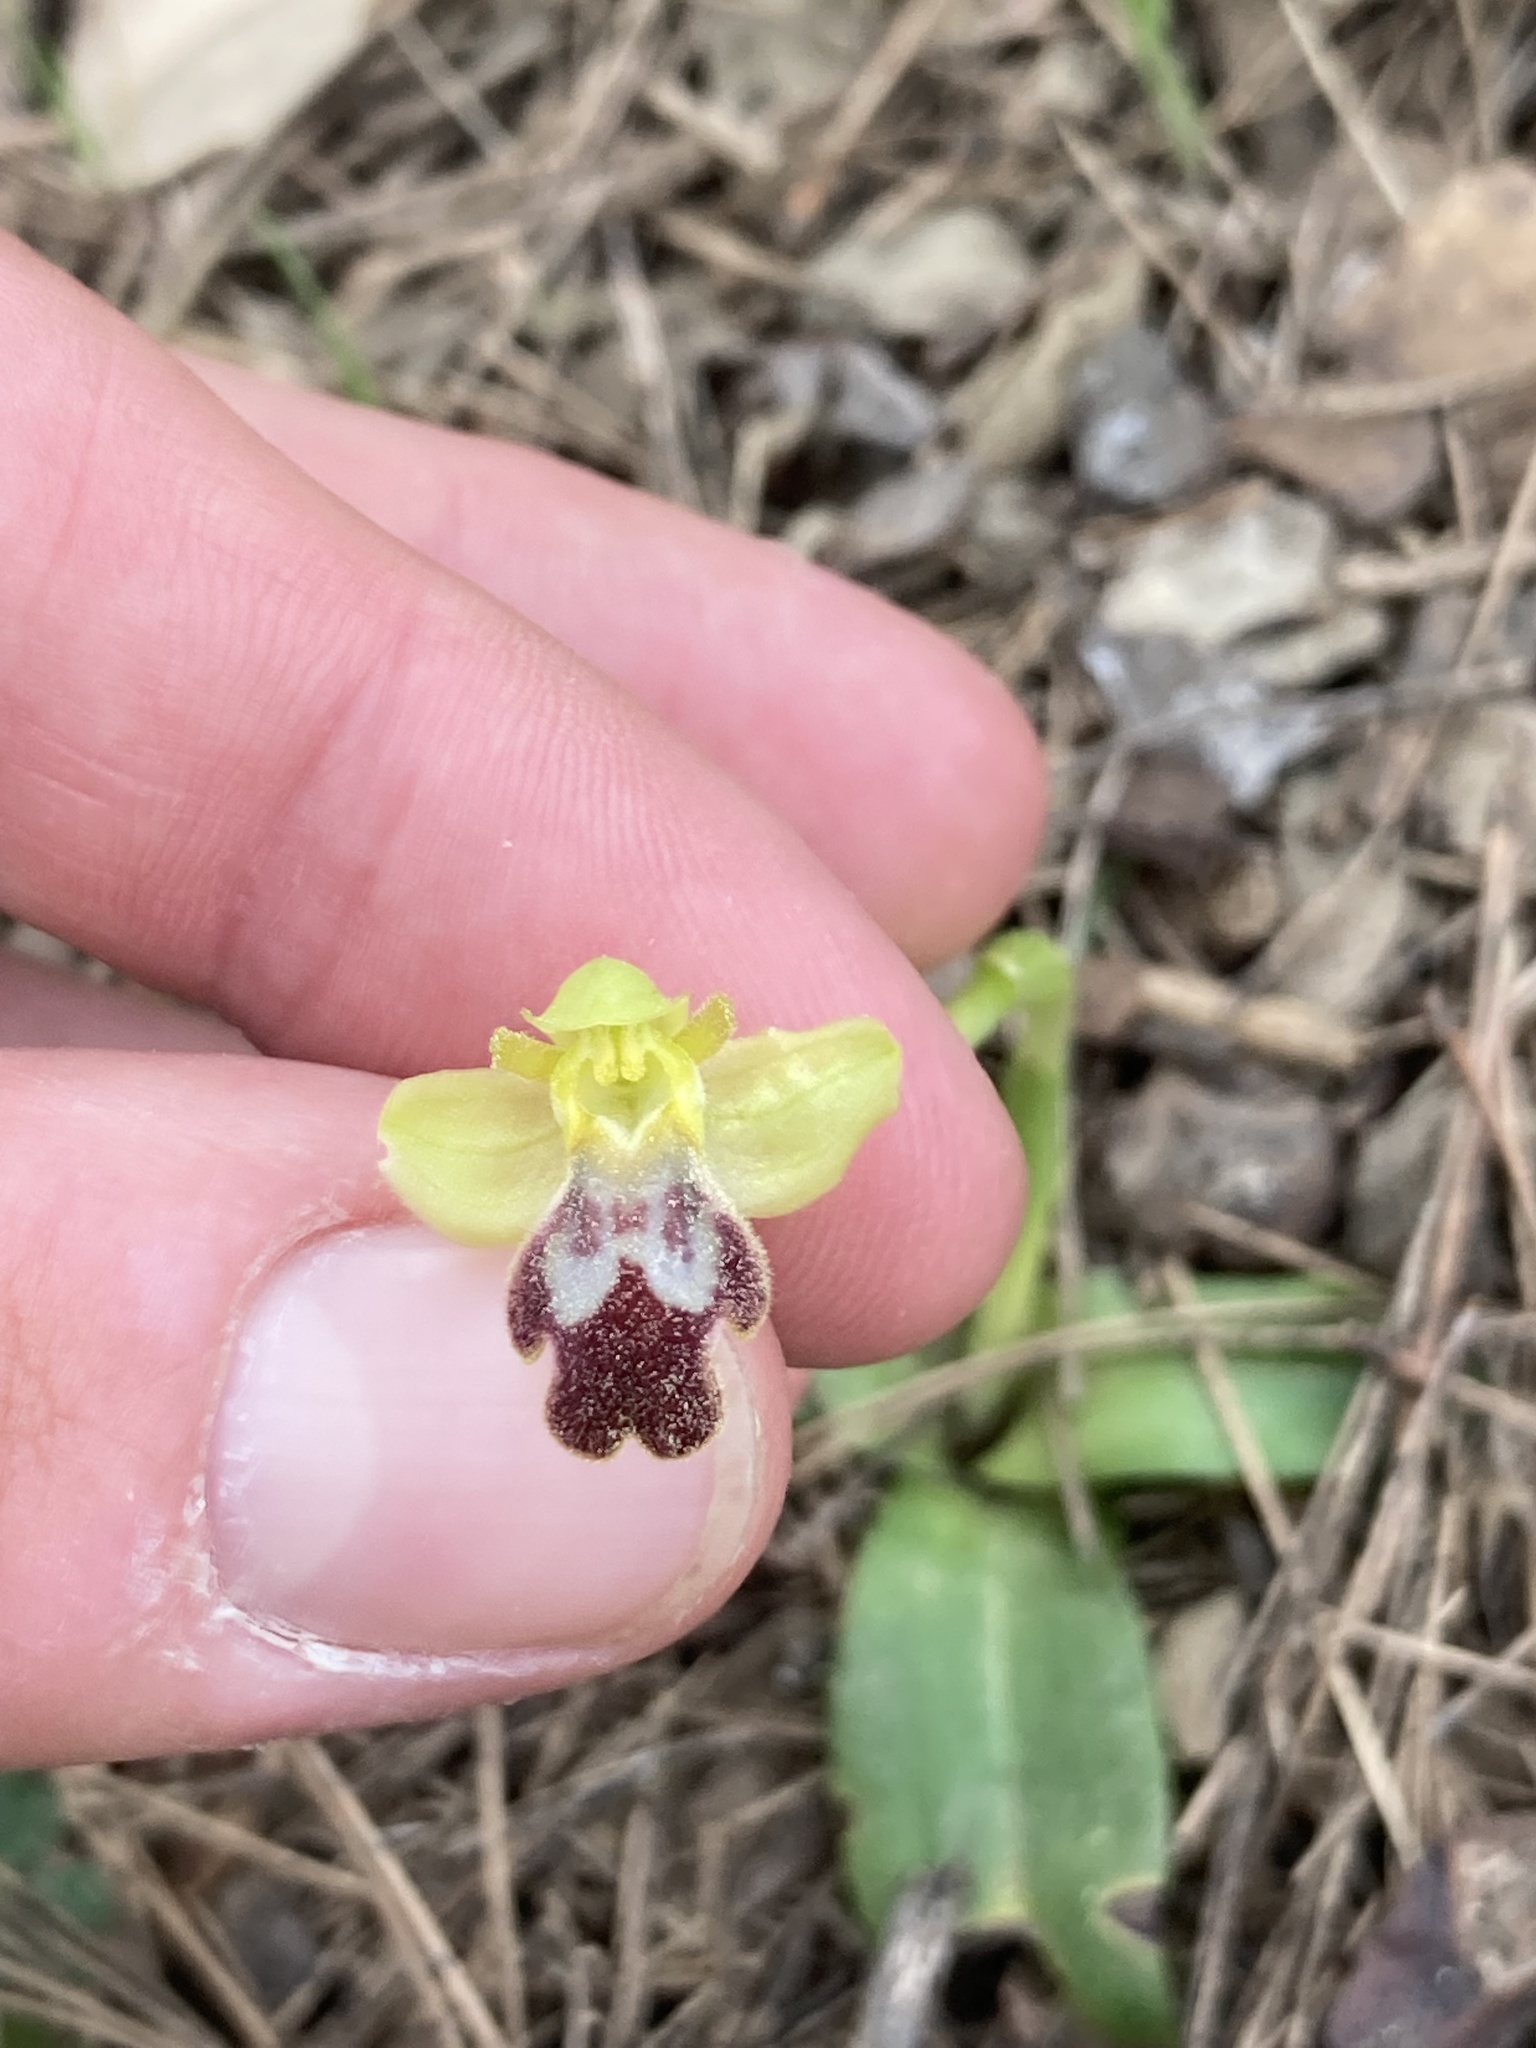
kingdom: Plantae
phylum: Tracheophyta
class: Liliopsida
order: Asparagales
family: Orchidaceae
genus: Ophrys
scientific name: Ophrys fusca
